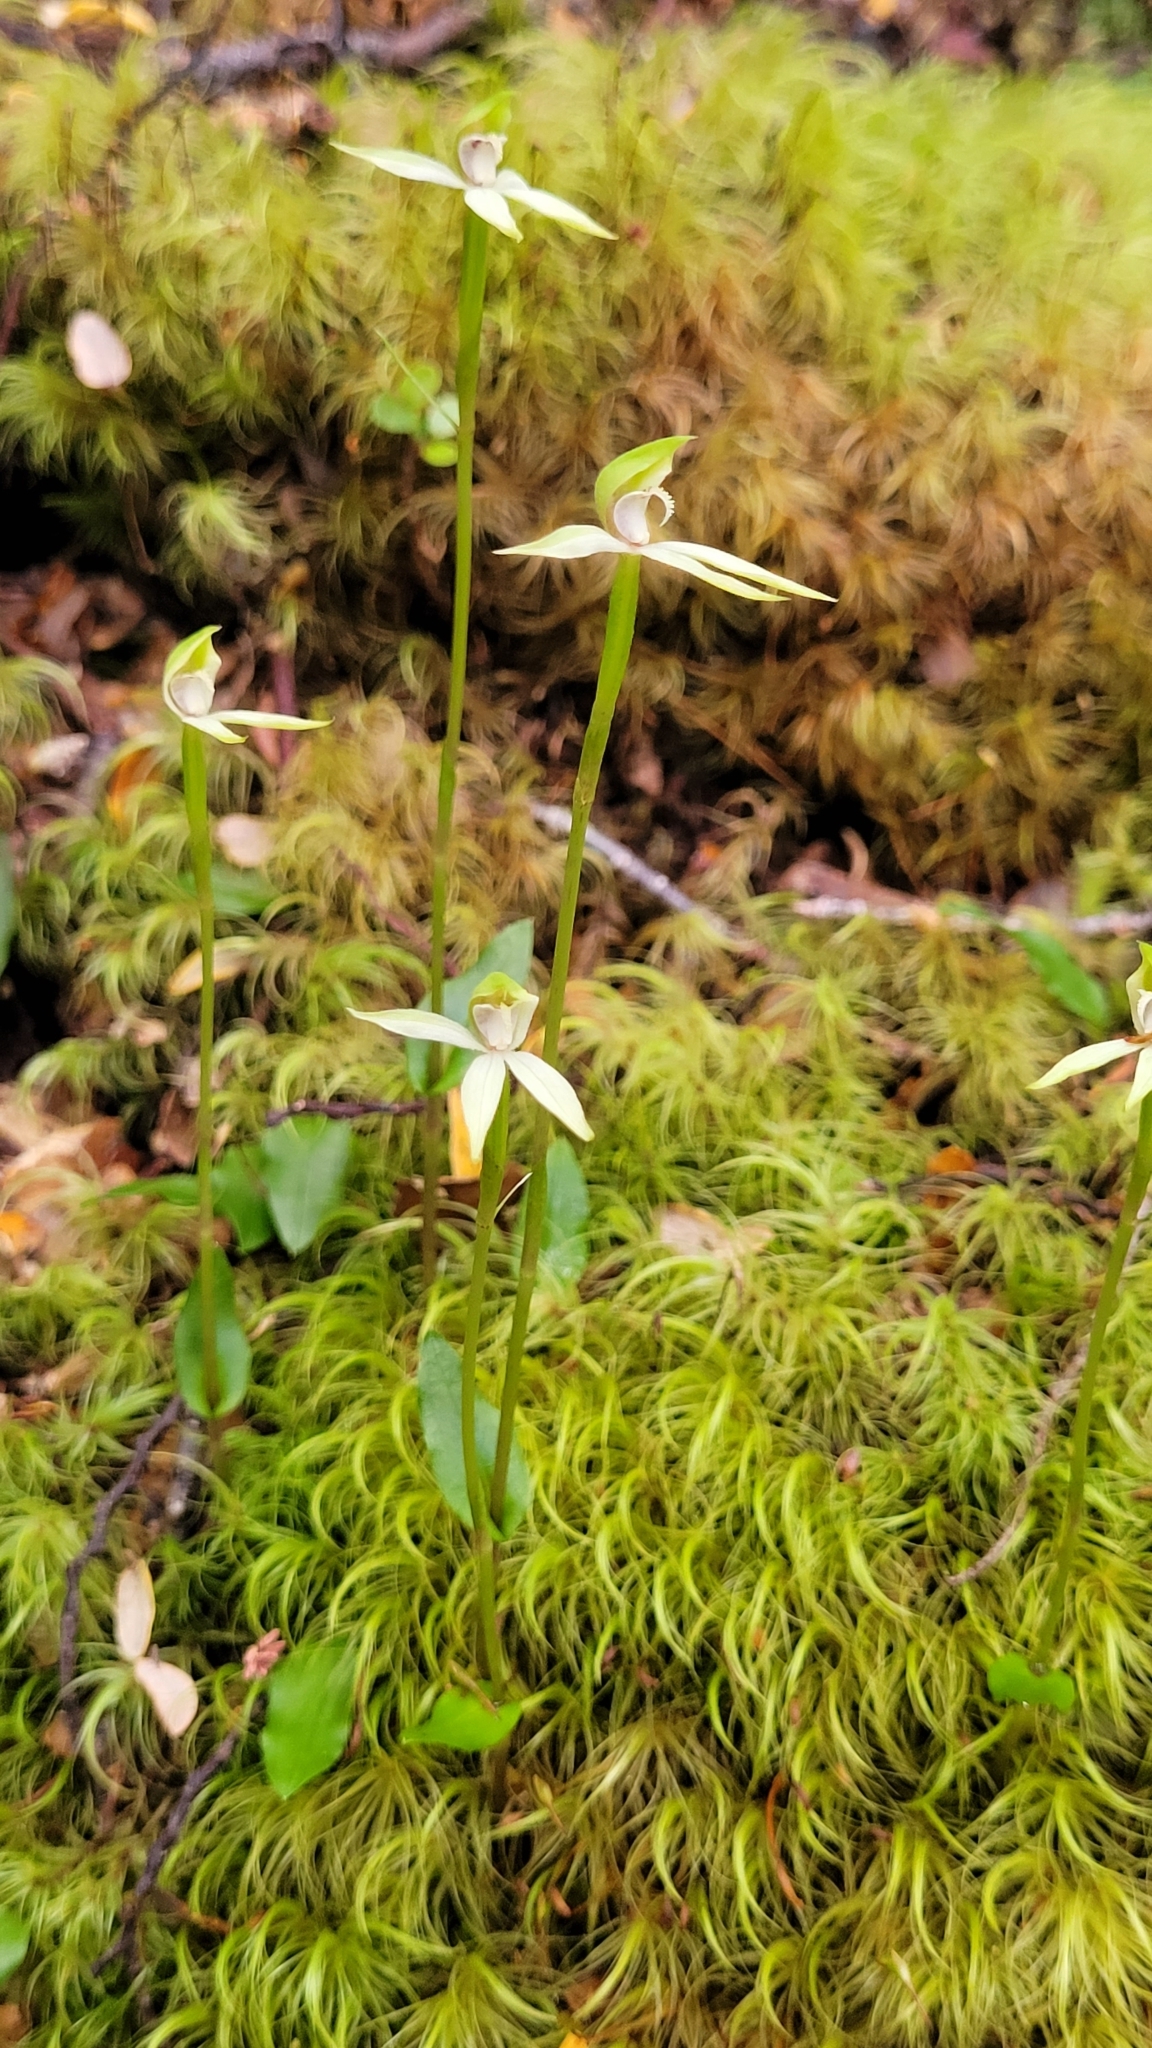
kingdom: Plantae
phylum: Tracheophyta
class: Liliopsida
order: Asparagales
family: Orchidaceae
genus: Adenochilus
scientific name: Adenochilus gracilis
